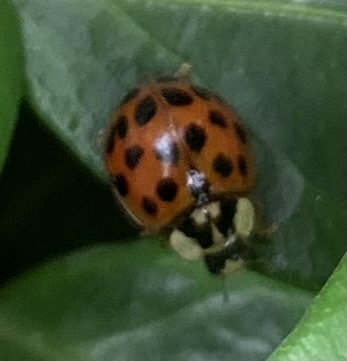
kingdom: Animalia
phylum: Arthropoda
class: Insecta
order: Coleoptera
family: Coccinellidae
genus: Harmonia
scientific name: Harmonia axyridis
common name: Harlequin ladybird
